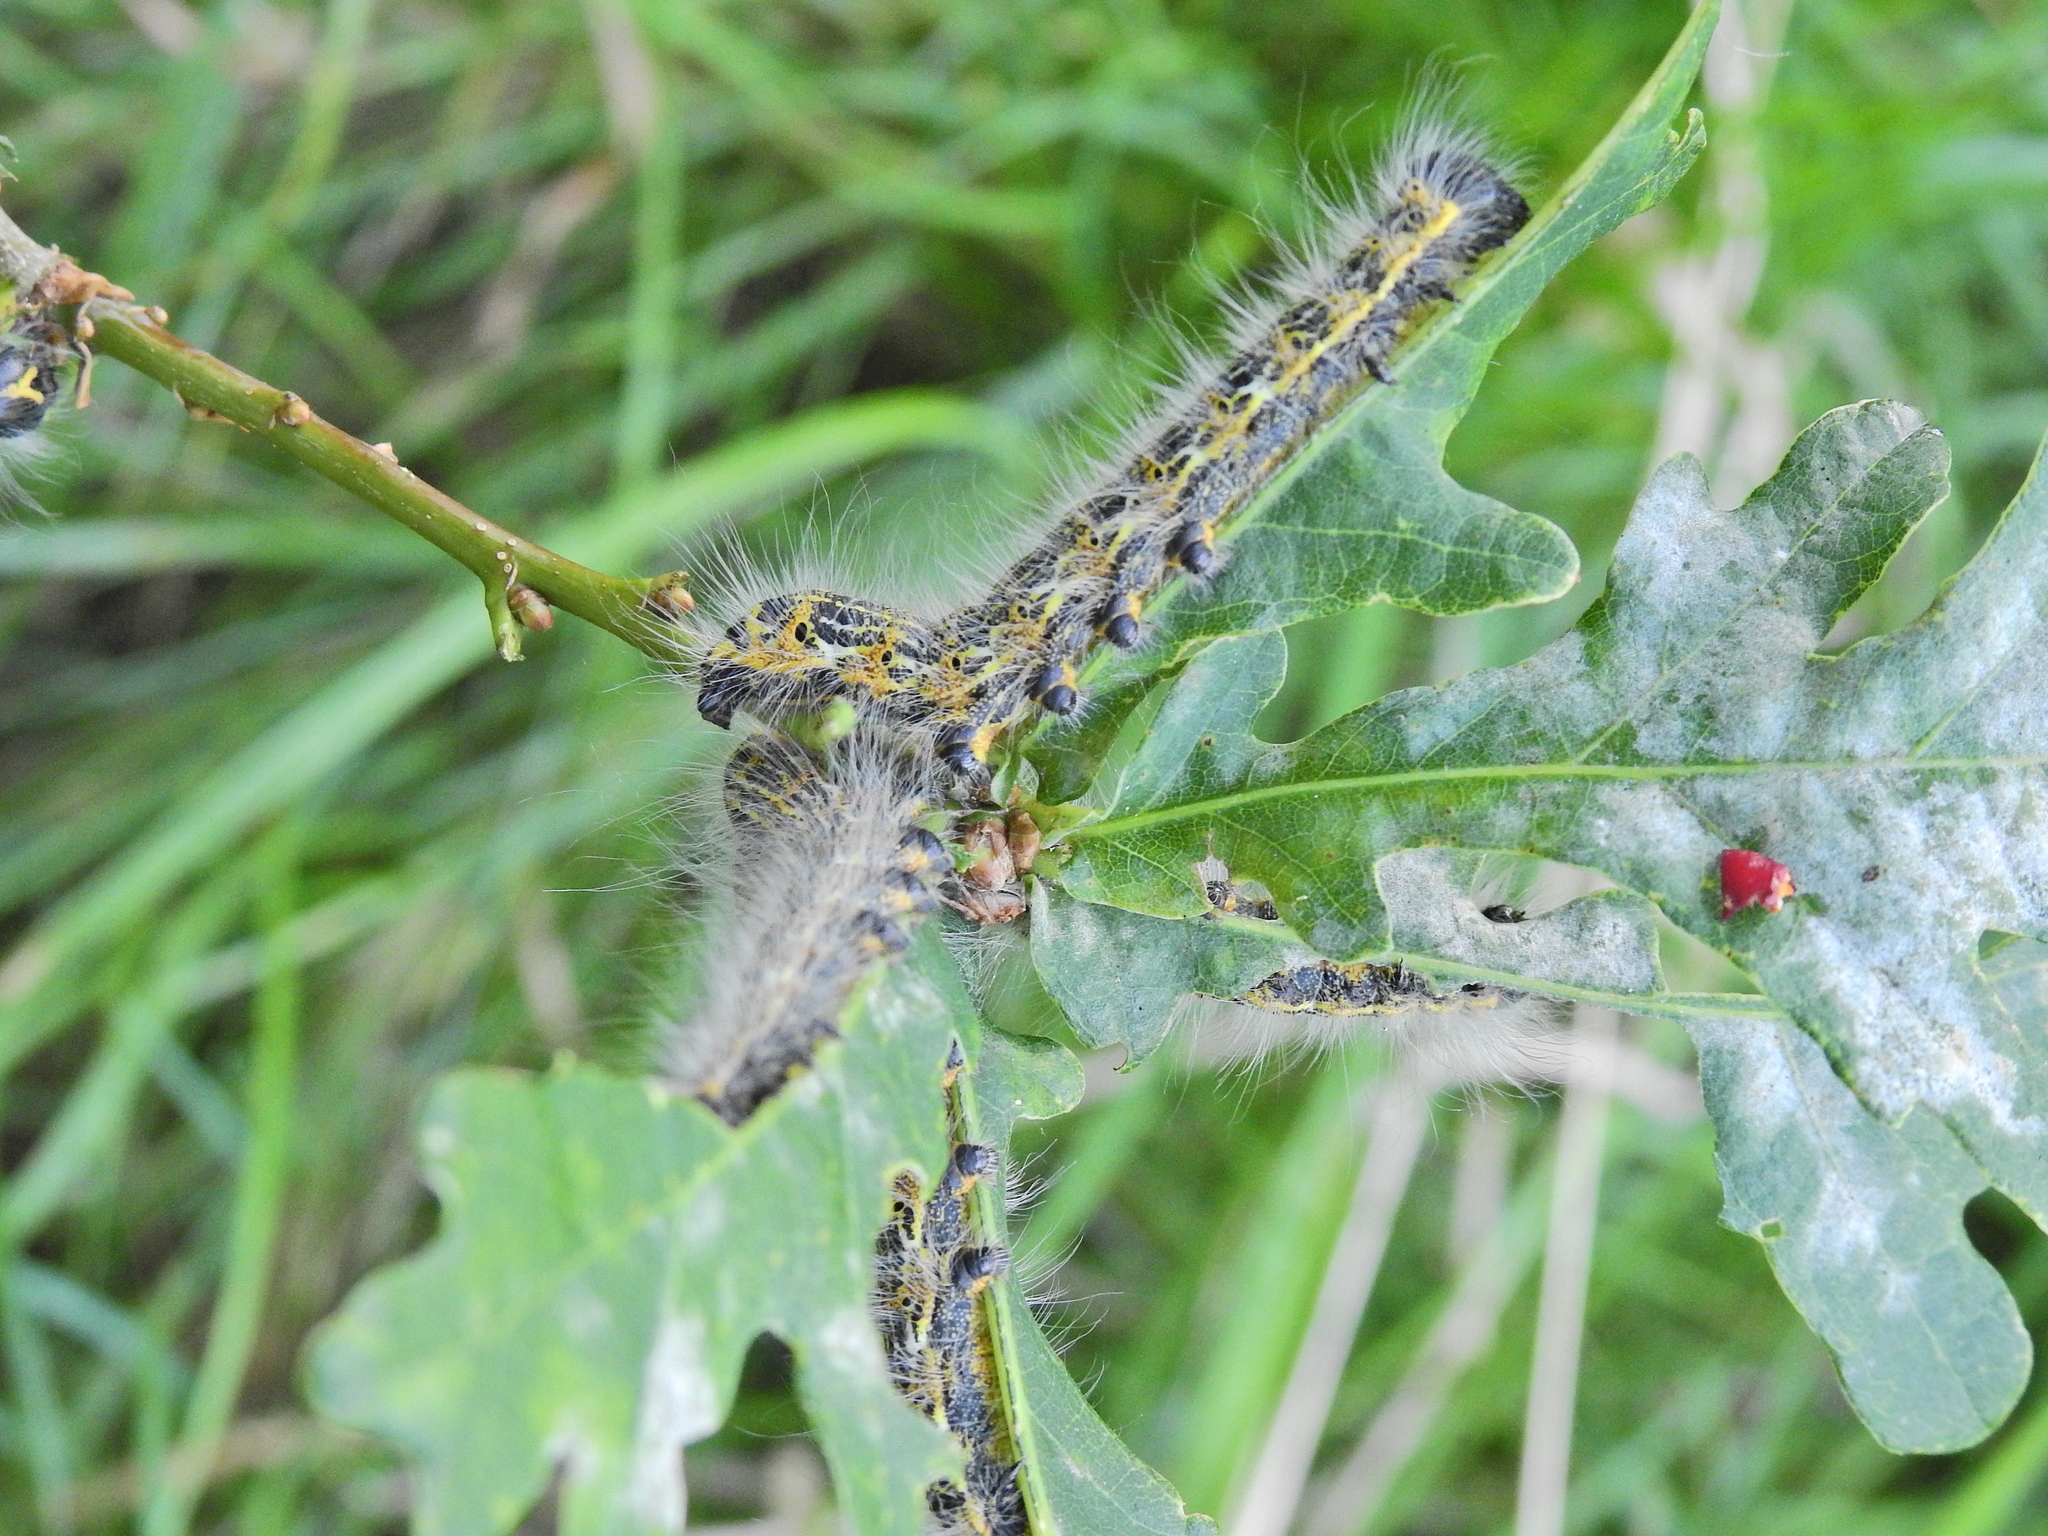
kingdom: Animalia
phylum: Arthropoda
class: Insecta
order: Lepidoptera
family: Notodontidae
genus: Phalera
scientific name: Phalera bucephala
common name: Buff-tip
